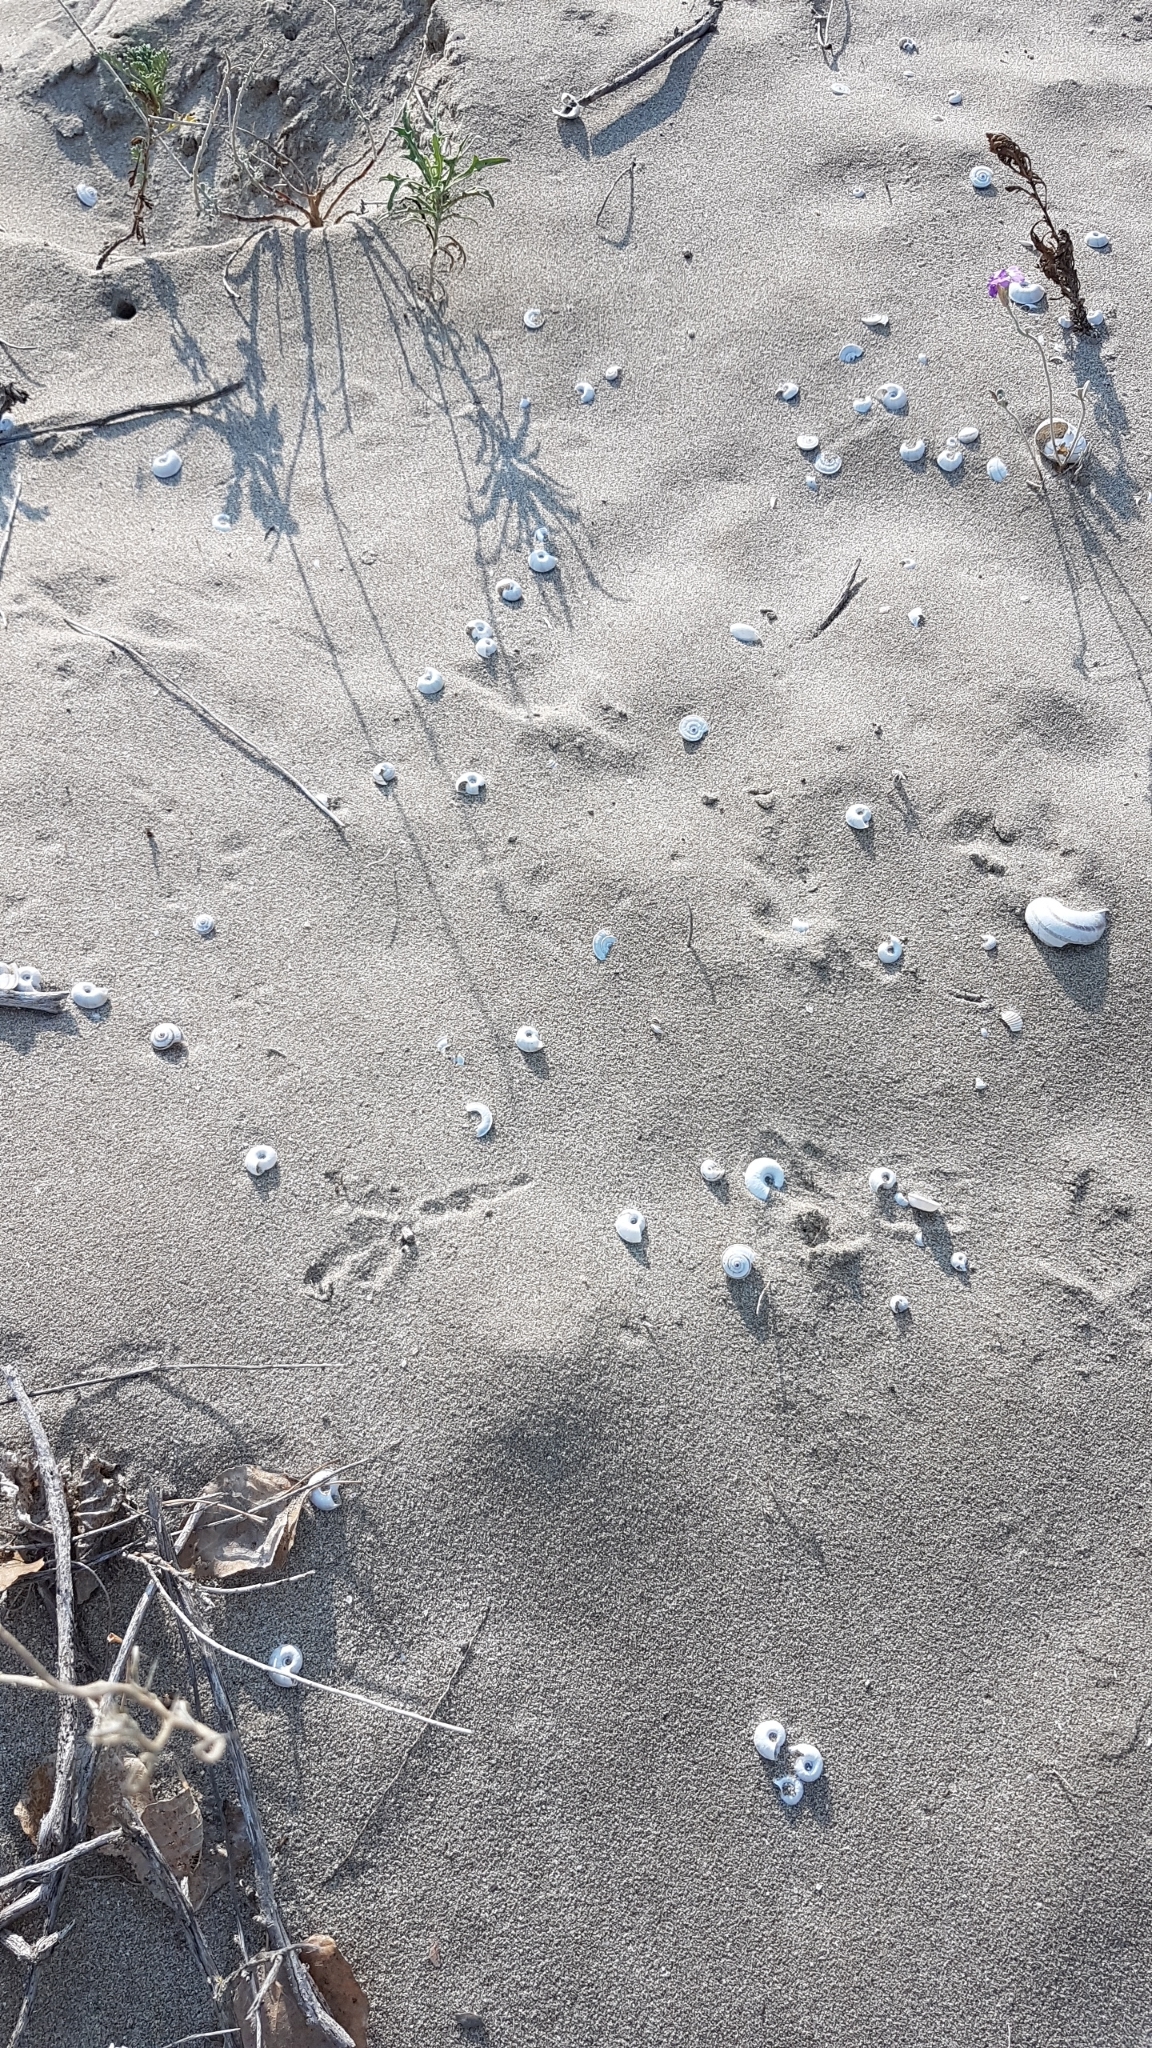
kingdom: Animalia
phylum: Mollusca
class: Gastropoda
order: Stylommatophora
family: Geomitridae
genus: Xerosecta
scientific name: Xerosecta explanata
